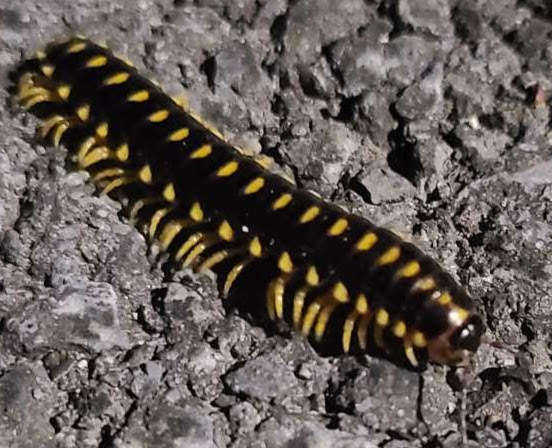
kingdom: Animalia
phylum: Arthropoda
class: Diplopoda
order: Polydesmida
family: Xystodesmidae
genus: Rudiloria
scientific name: Rudiloria trimaculata
